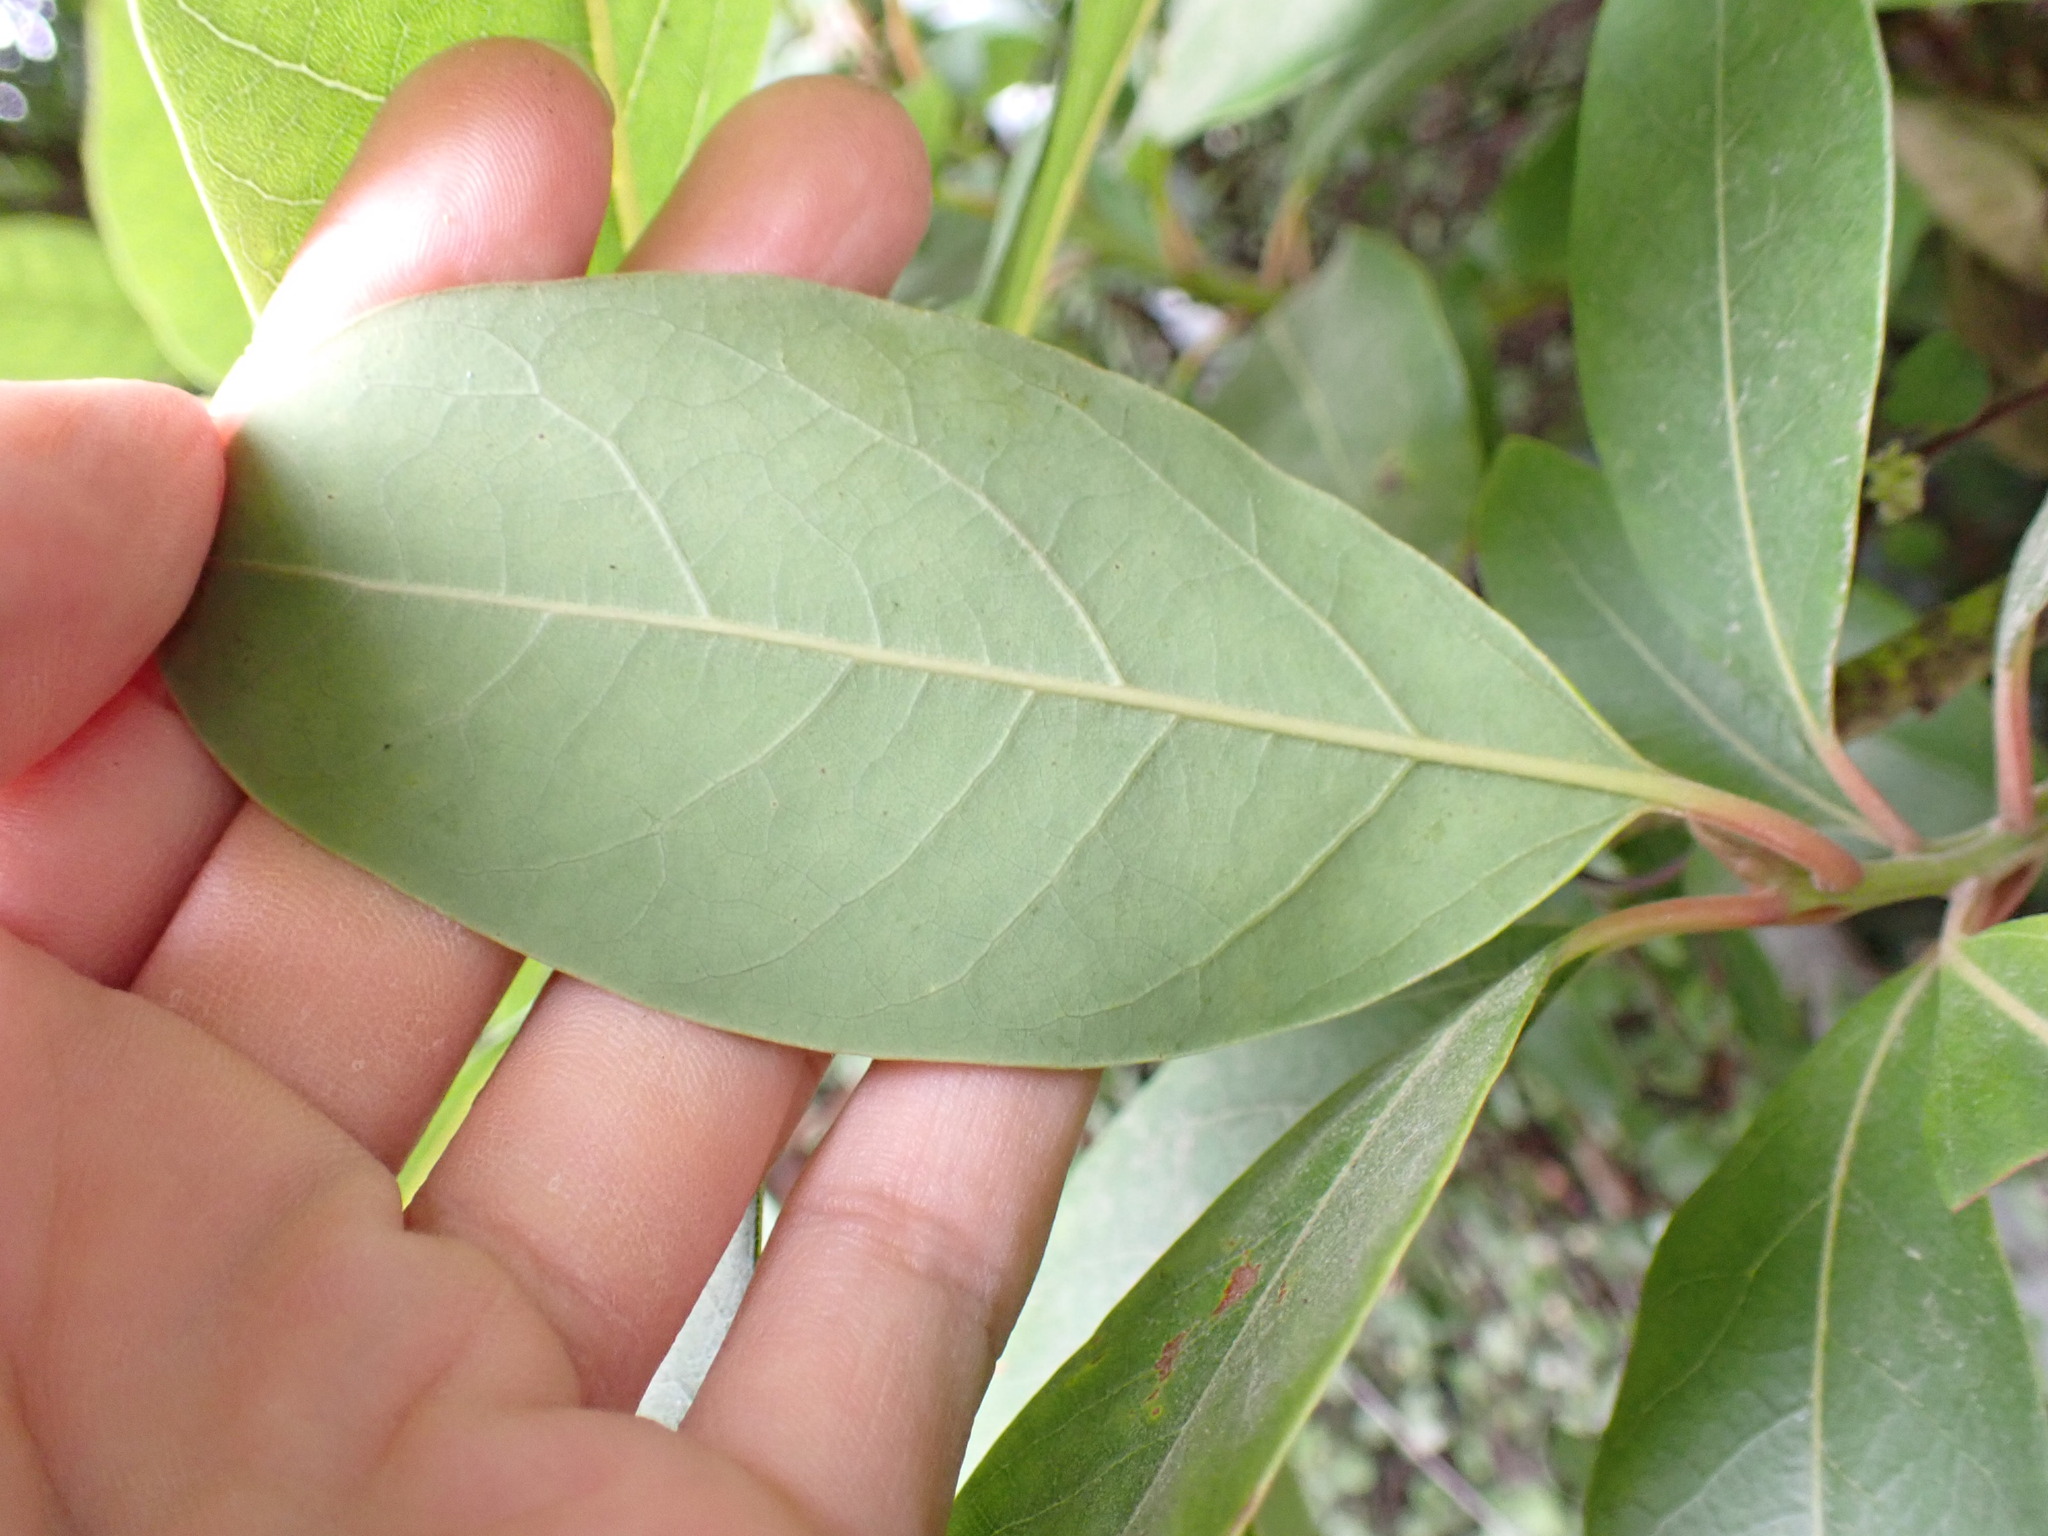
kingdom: Plantae
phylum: Tracheophyta
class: Magnoliopsida
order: Laurales
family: Lauraceae
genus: Persea
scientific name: Persea indica
